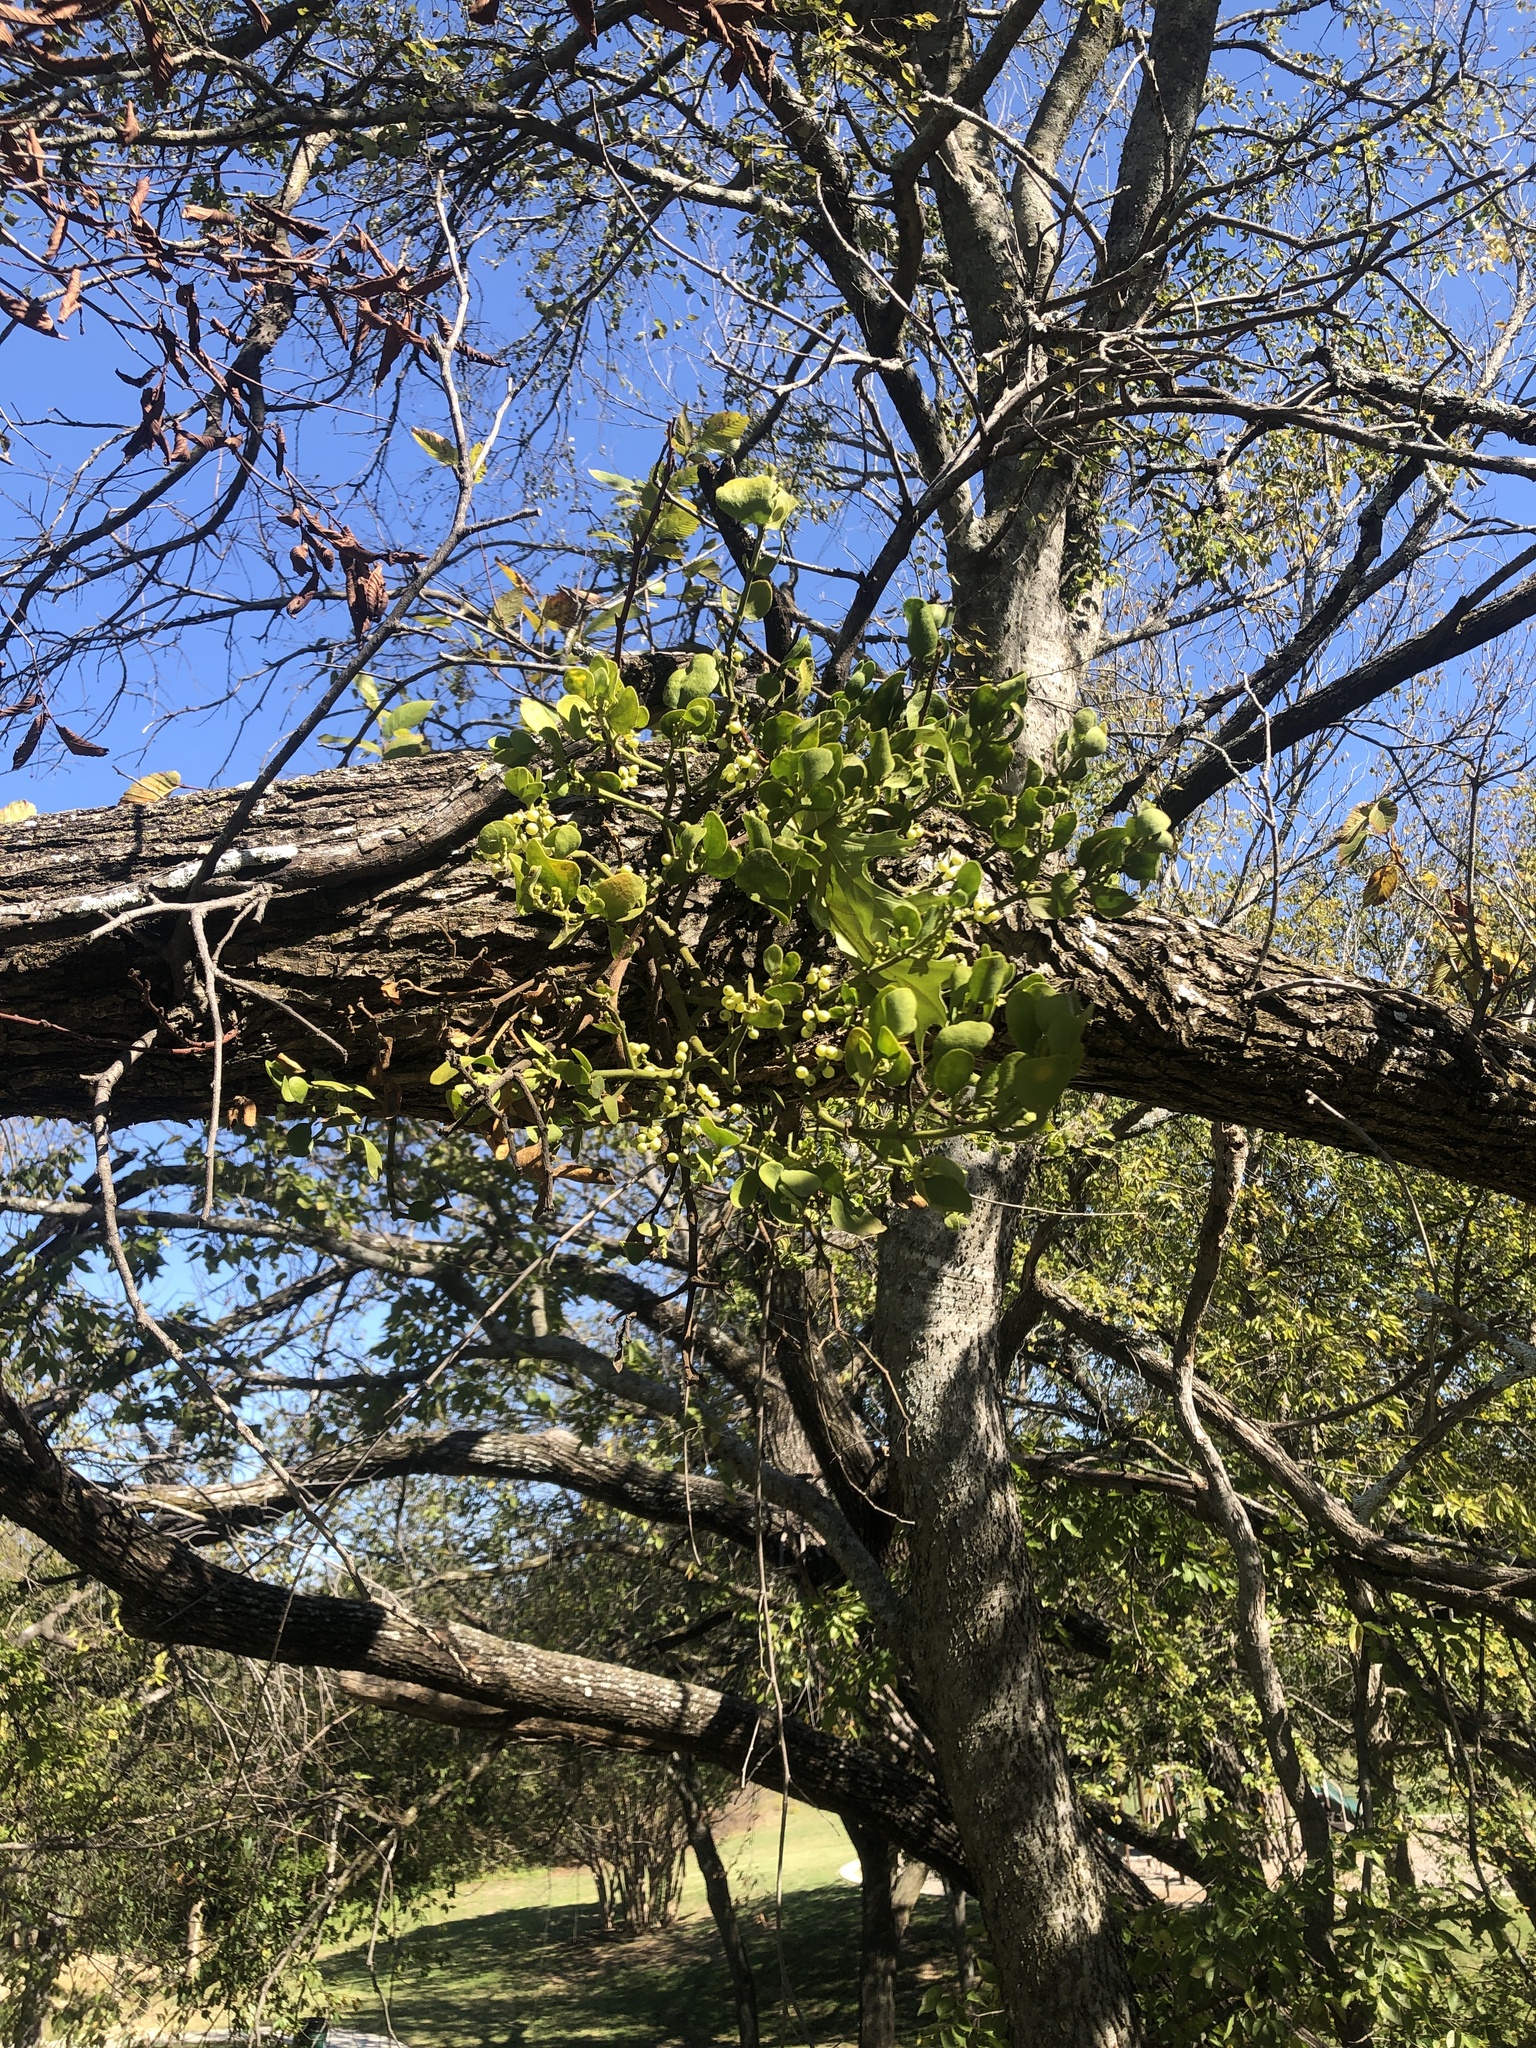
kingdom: Plantae
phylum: Tracheophyta
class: Magnoliopsida
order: Santalales
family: Viscaceae
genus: Phoradendron
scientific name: Phoradendron leucarpum
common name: Pacific mistletoe
